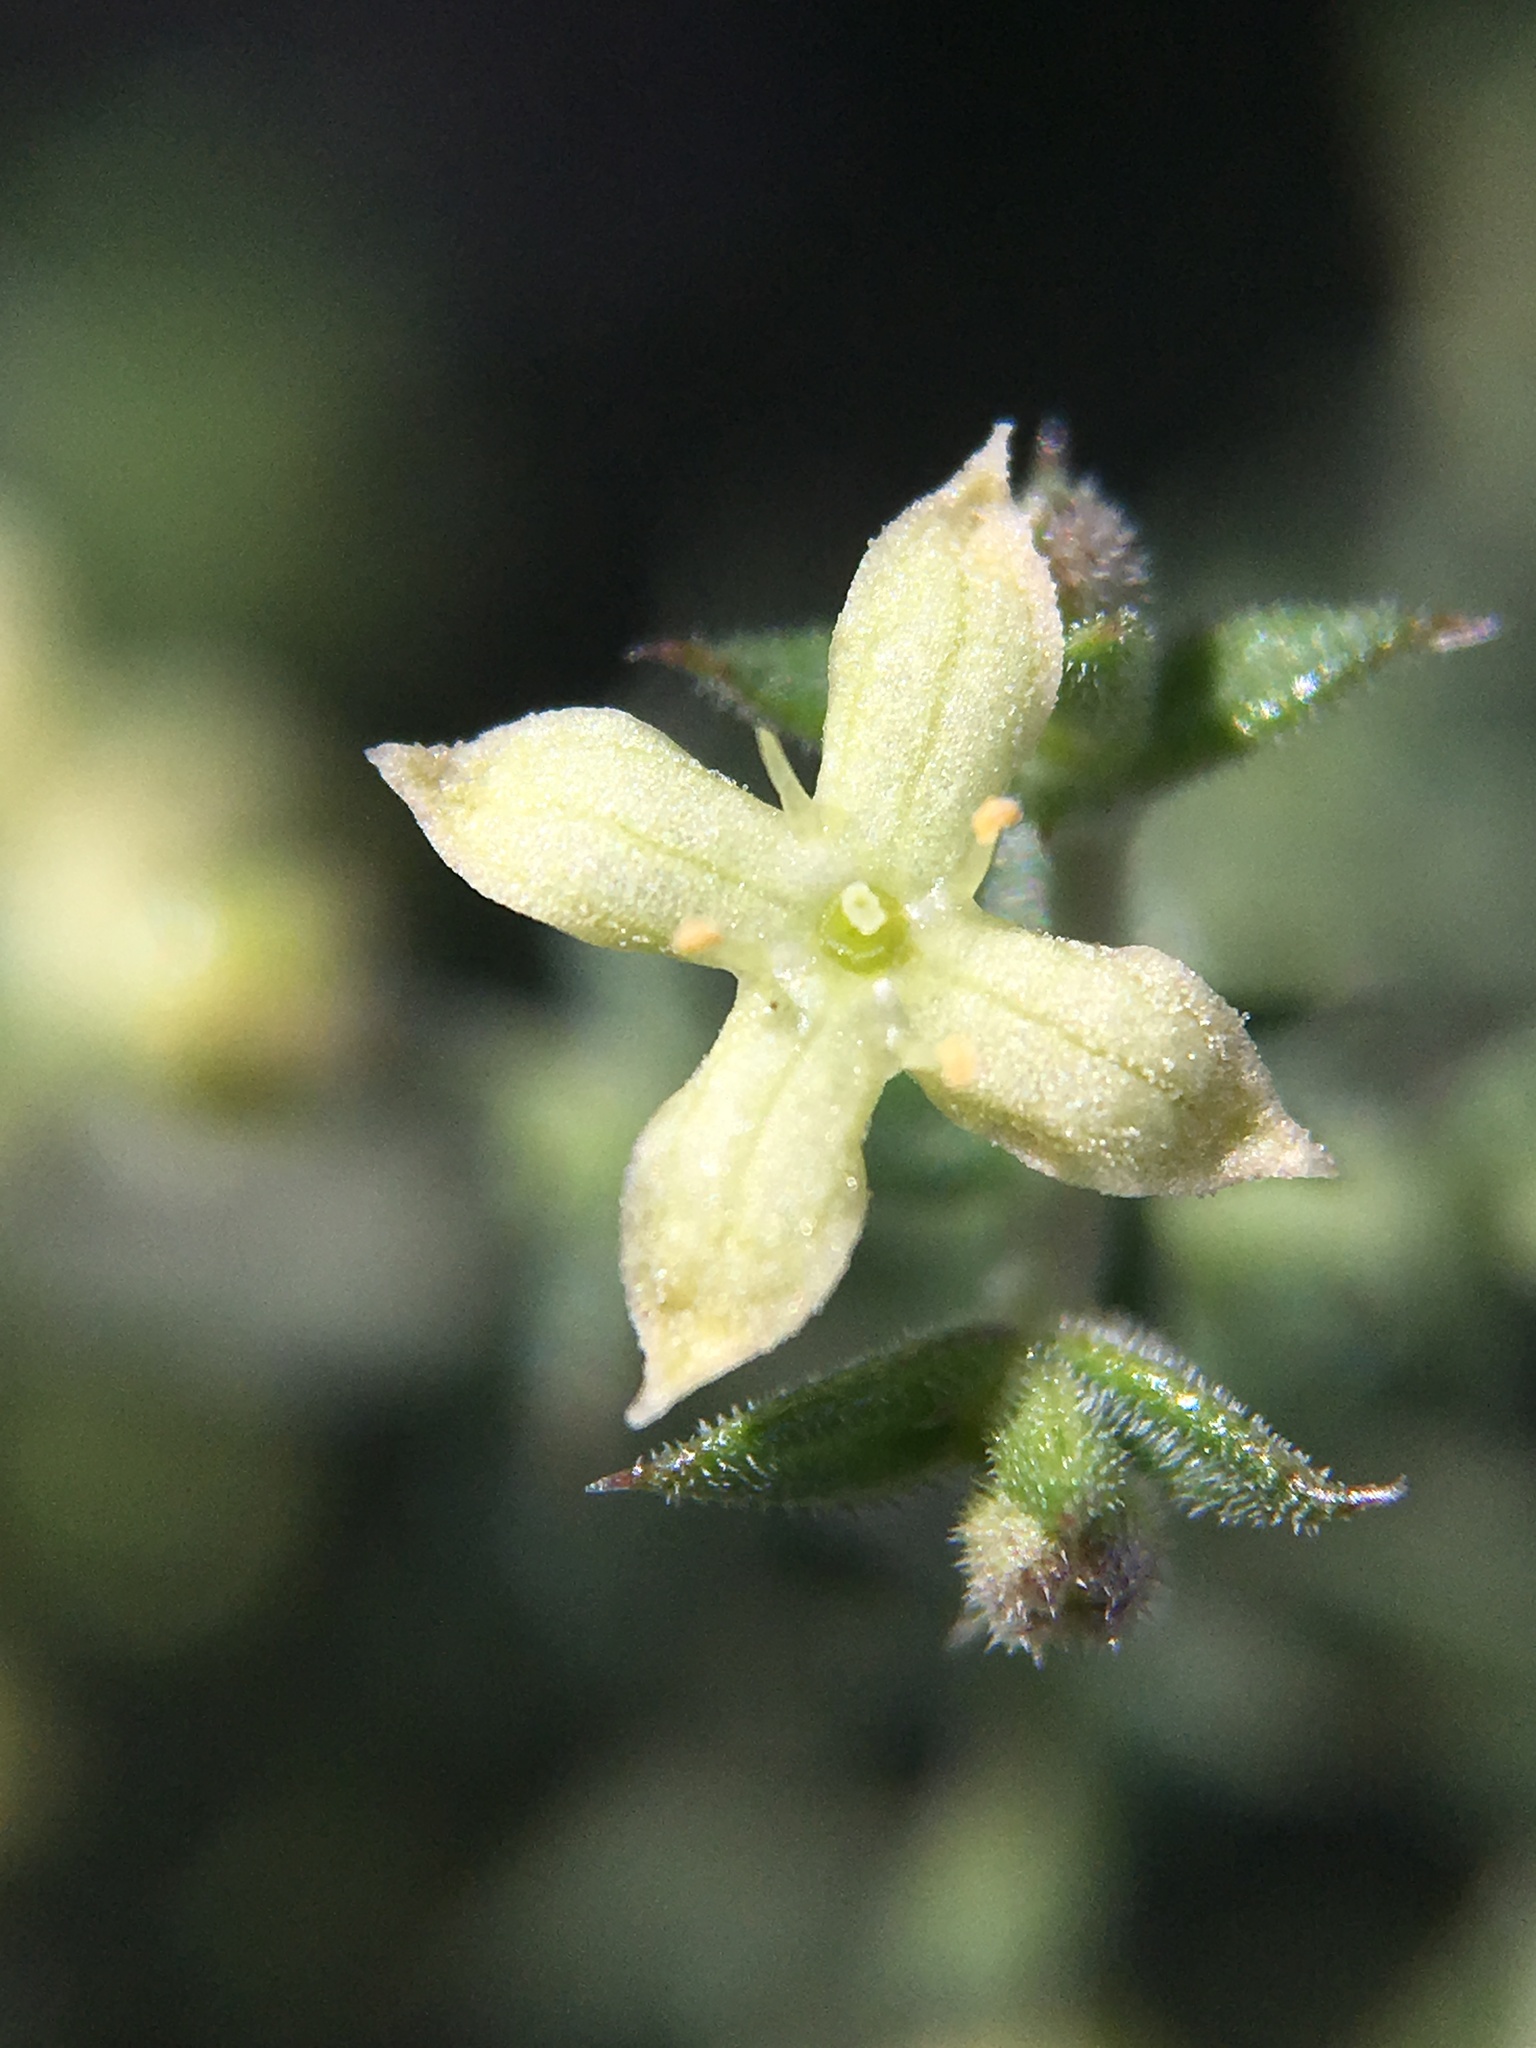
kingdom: Plantae
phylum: Tracheophyta
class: Magnoliopsida
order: Gentianales
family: Rubiaceae
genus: Galium
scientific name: Galium stellatum
